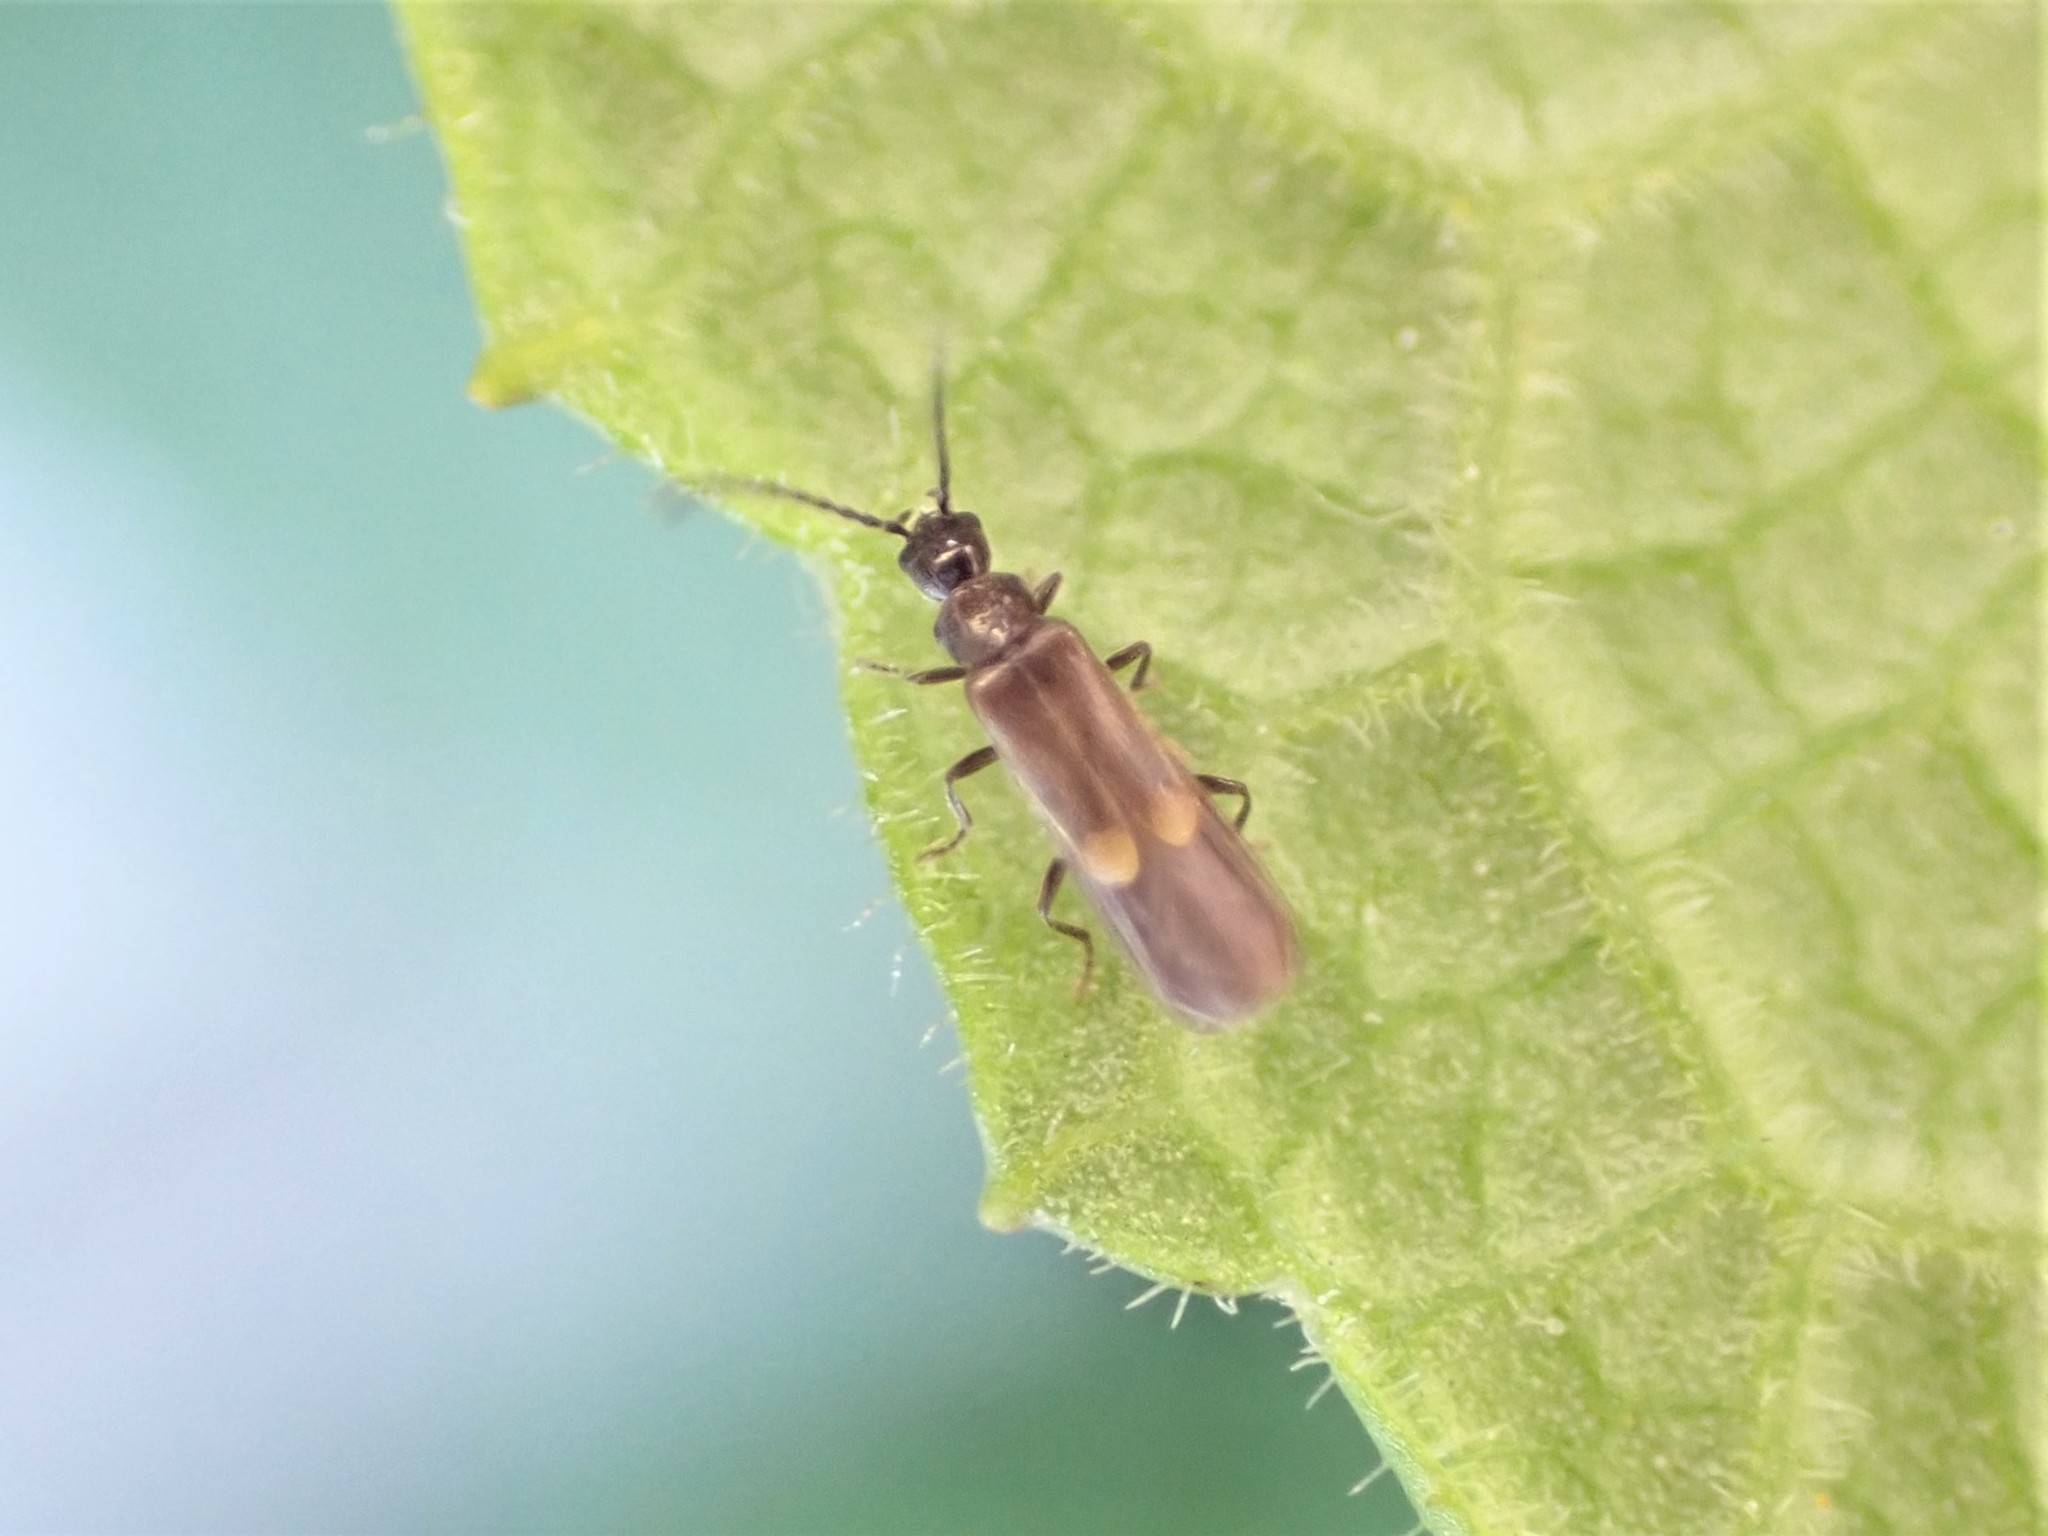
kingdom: Animalia
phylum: Arthropoda
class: Insecta
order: Coleoptera
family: Cantharidae
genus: Malthodes
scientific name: Malthodes pumilus
